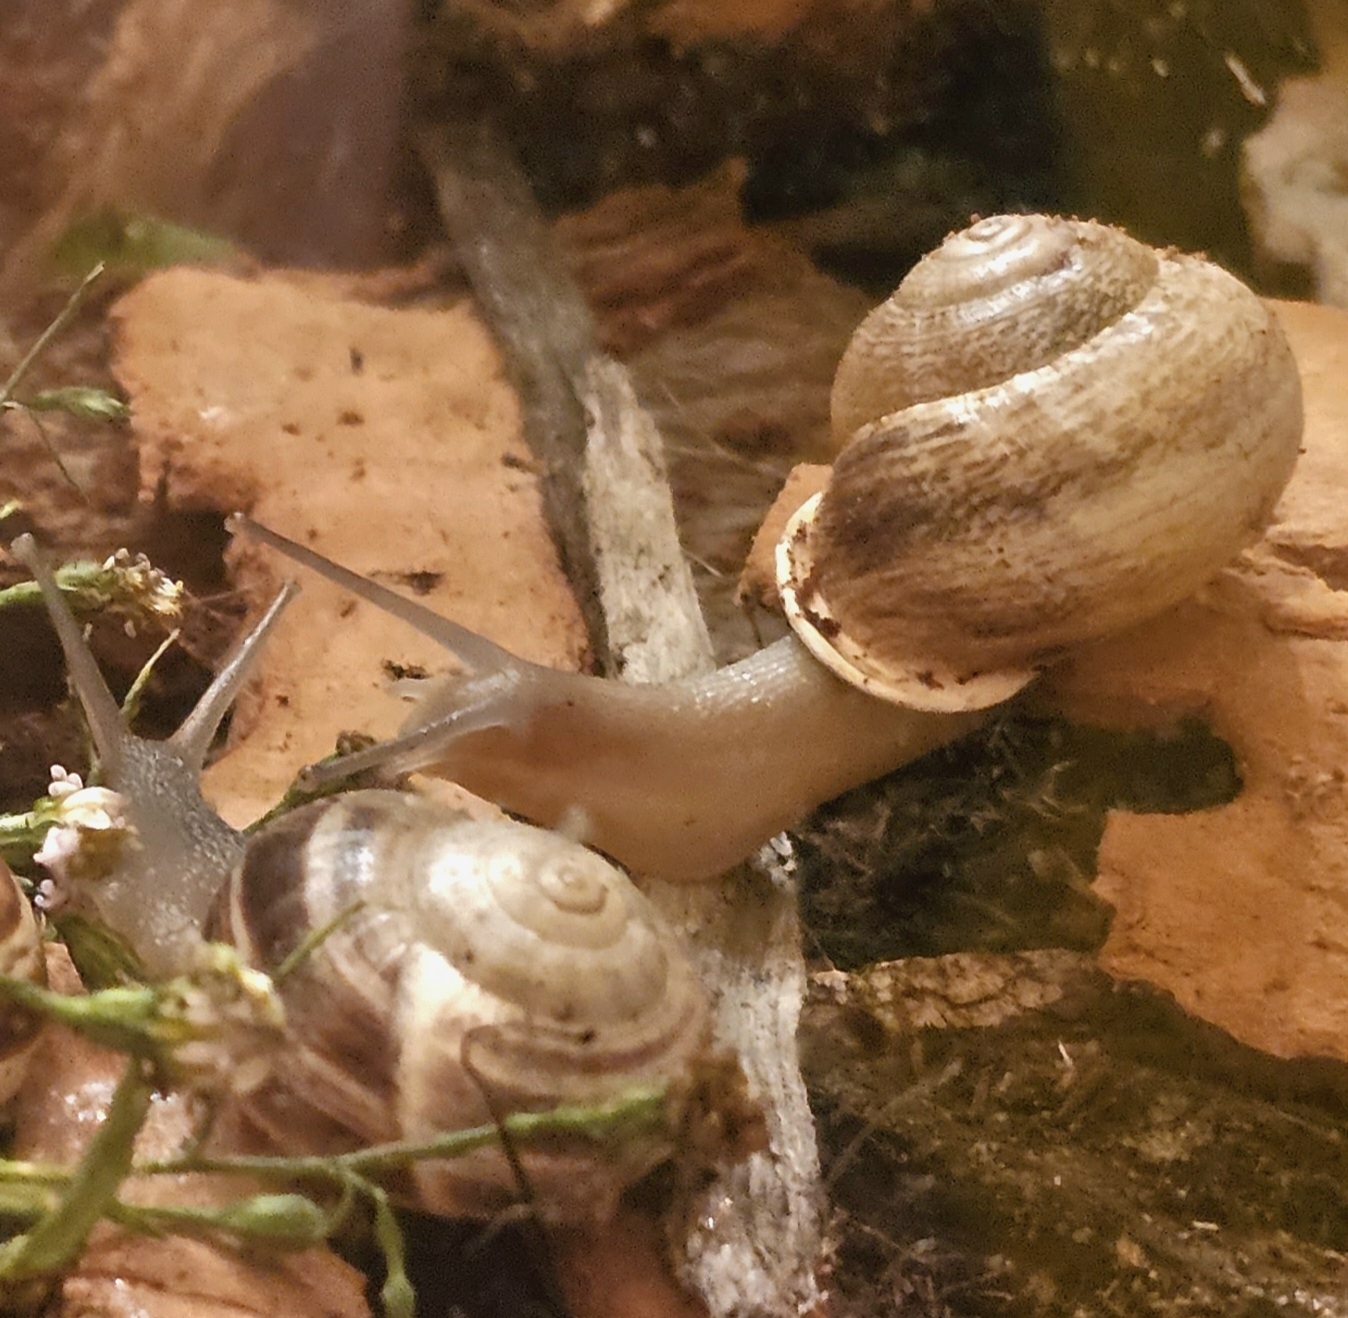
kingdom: Animalia
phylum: Mollusca
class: Gastropoda
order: Stylommatophora
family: Helicidae
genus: Otala
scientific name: Otala lactea
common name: Milk snail
